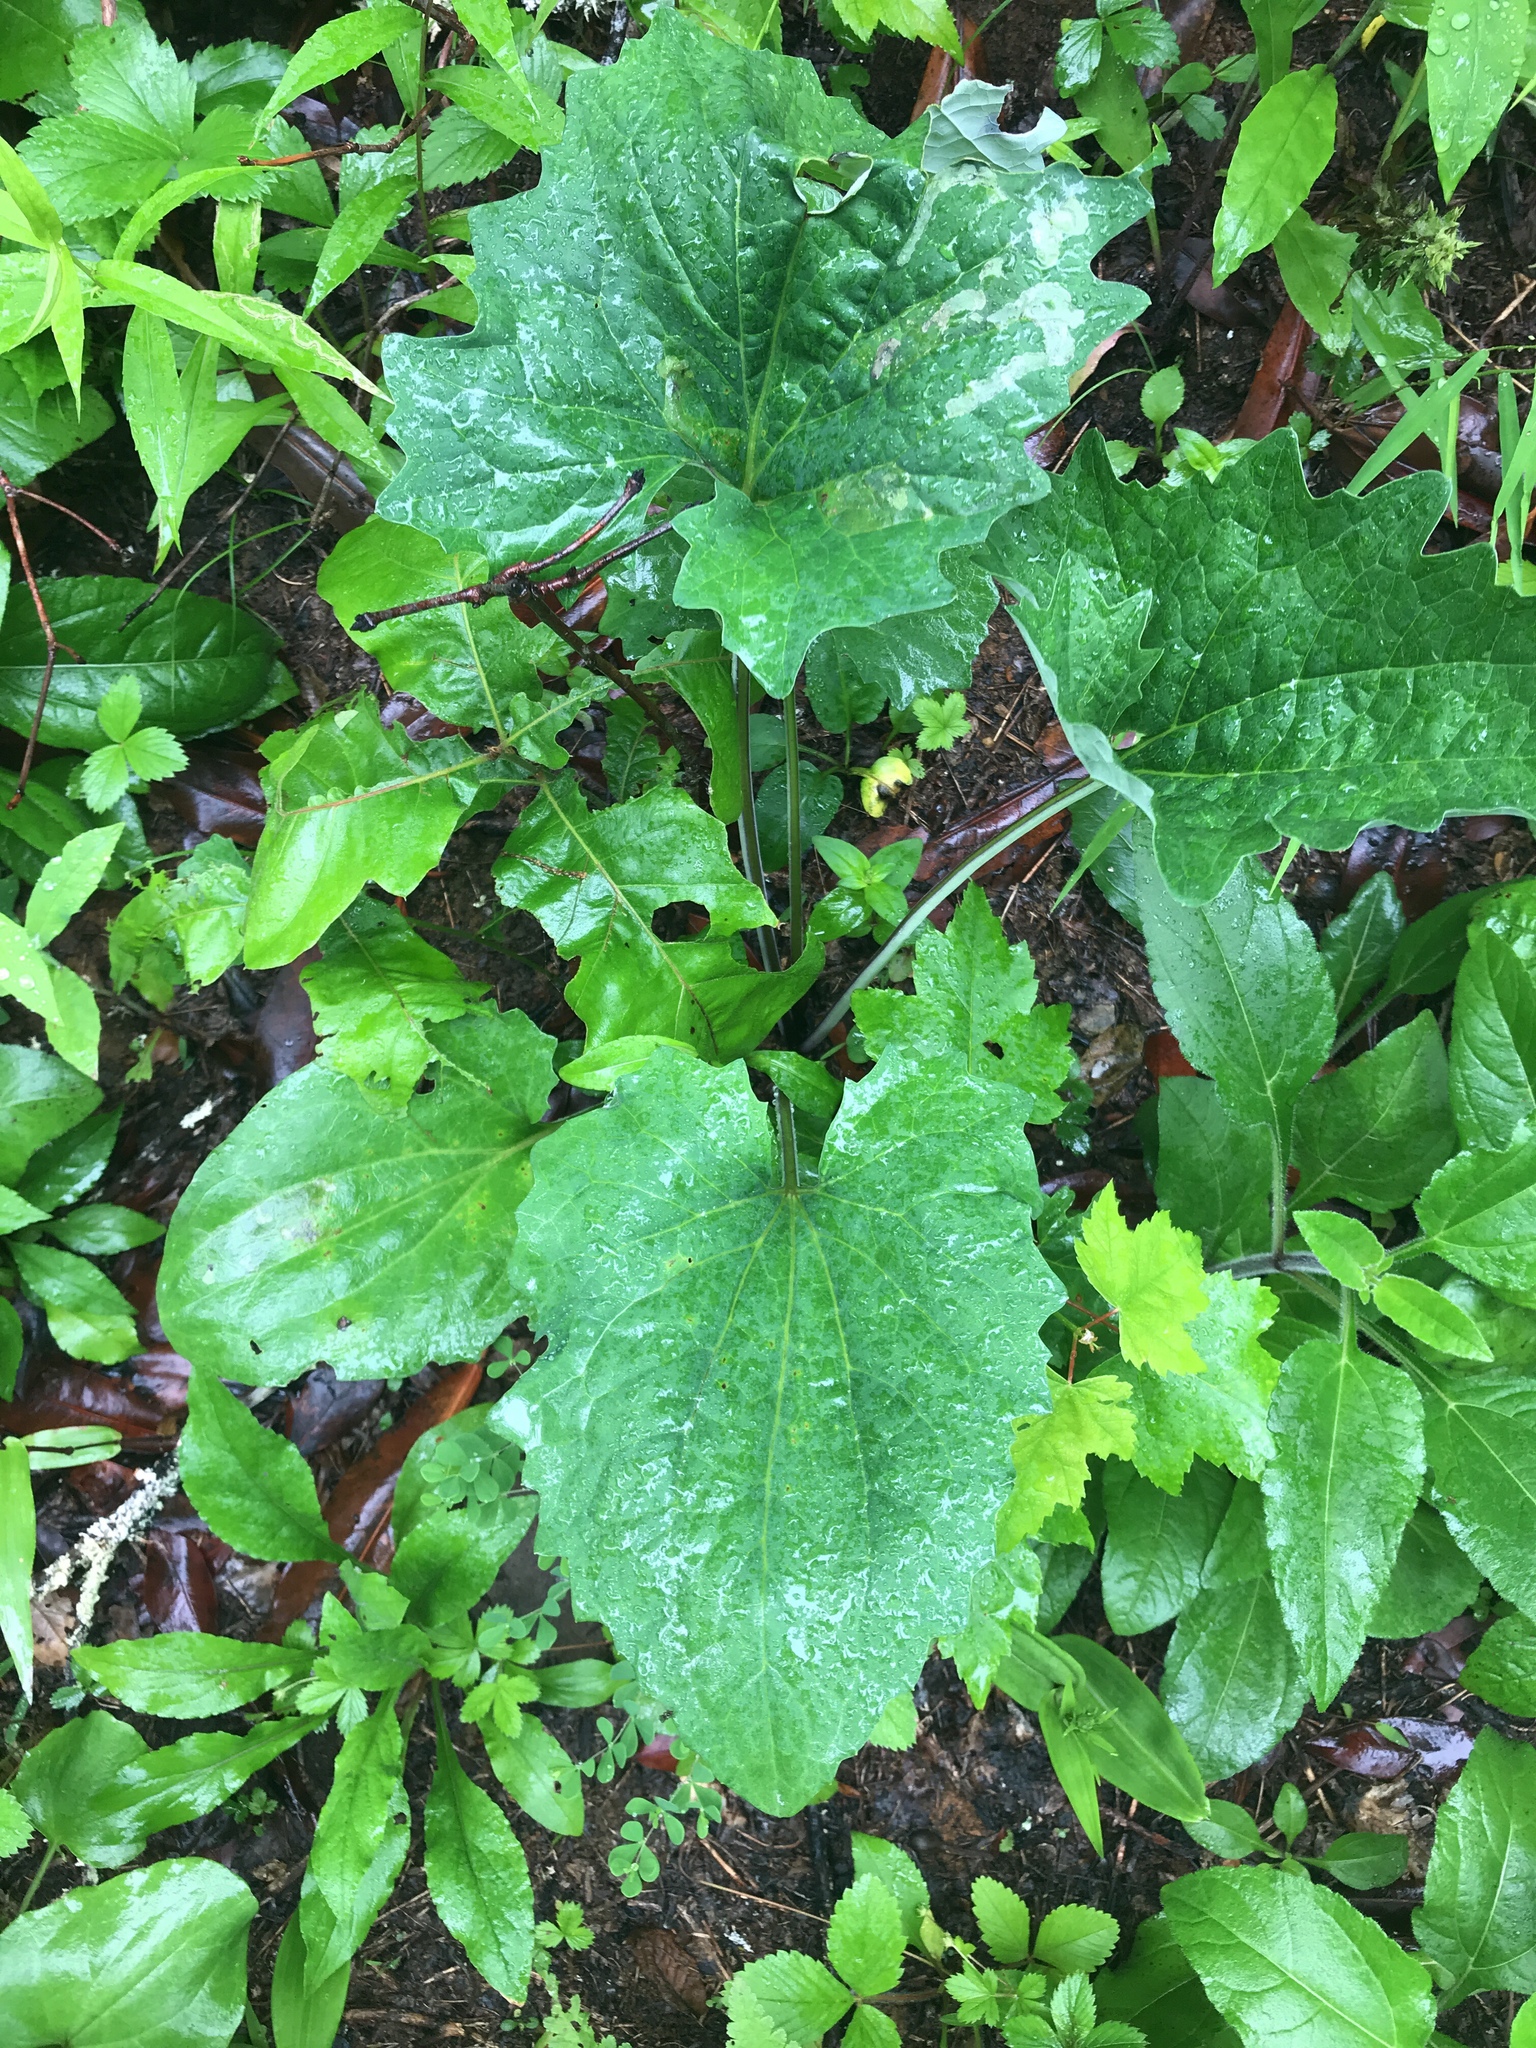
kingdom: Plantae
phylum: Tracheophyta
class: Magnoliopsida
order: Asterales
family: Asteraceae
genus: Arnoglossum
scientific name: Arnoglossum atriplicifolium
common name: Pale indian-plantain
